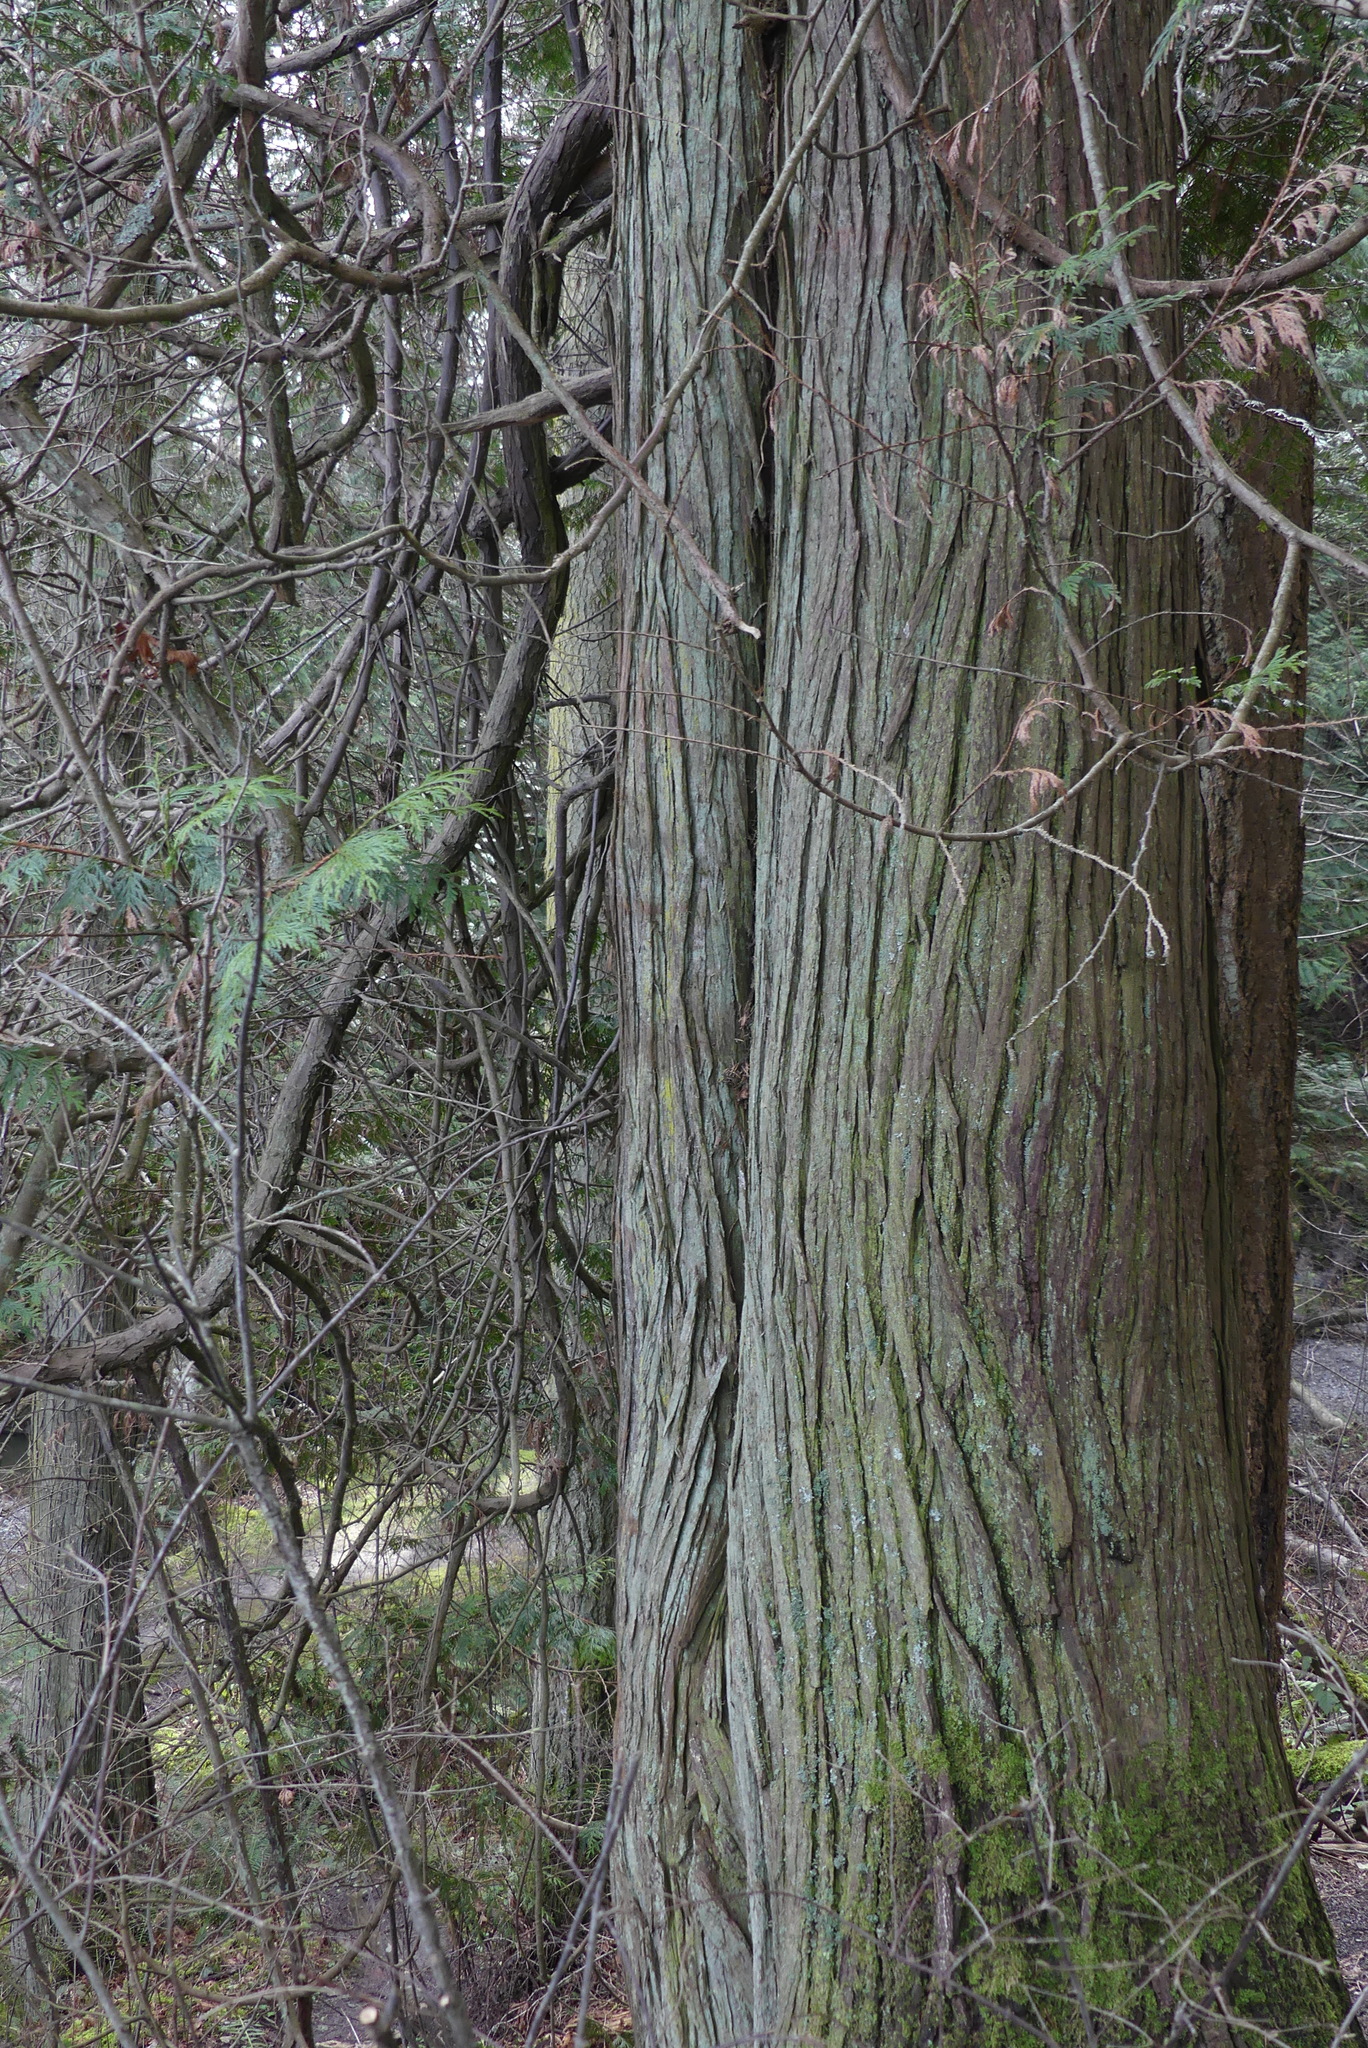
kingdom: Plantae
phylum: Tracheophyta
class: Pinopsida
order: Pinales
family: Cupressaceae
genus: Thuja
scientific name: Thuja plicata
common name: Western red-cedar
